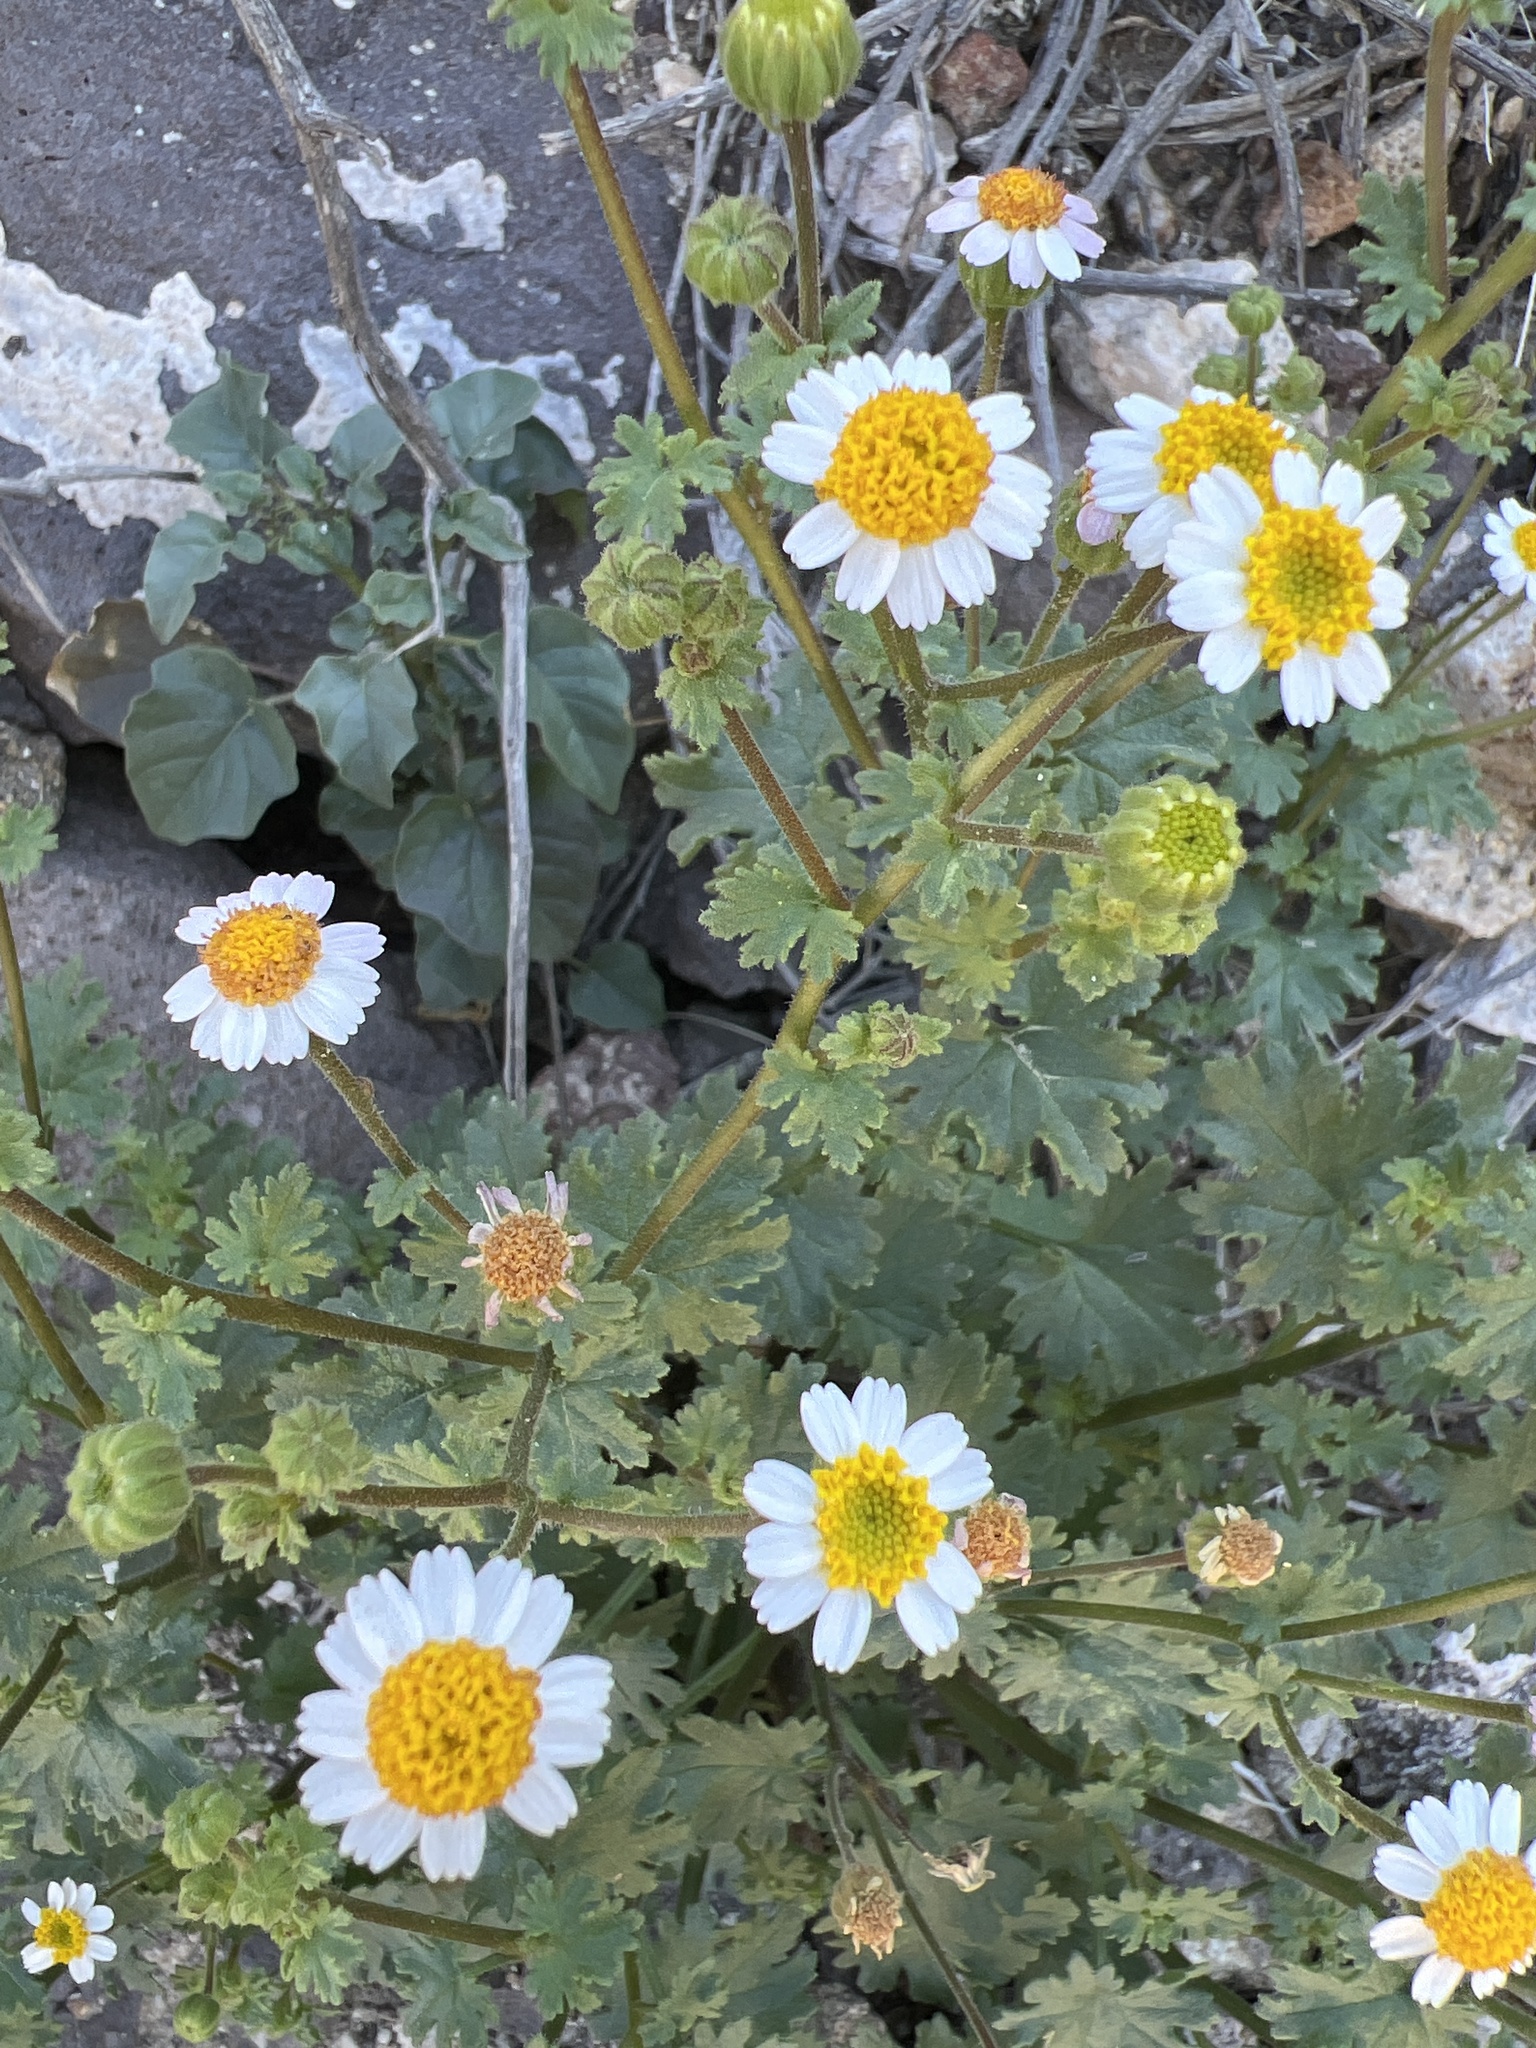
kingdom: Plantae
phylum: Tracheophyta
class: Magnoliopsida
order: Asterales
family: Asteraceae
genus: Laphamia
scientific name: Laphamia emoryi
